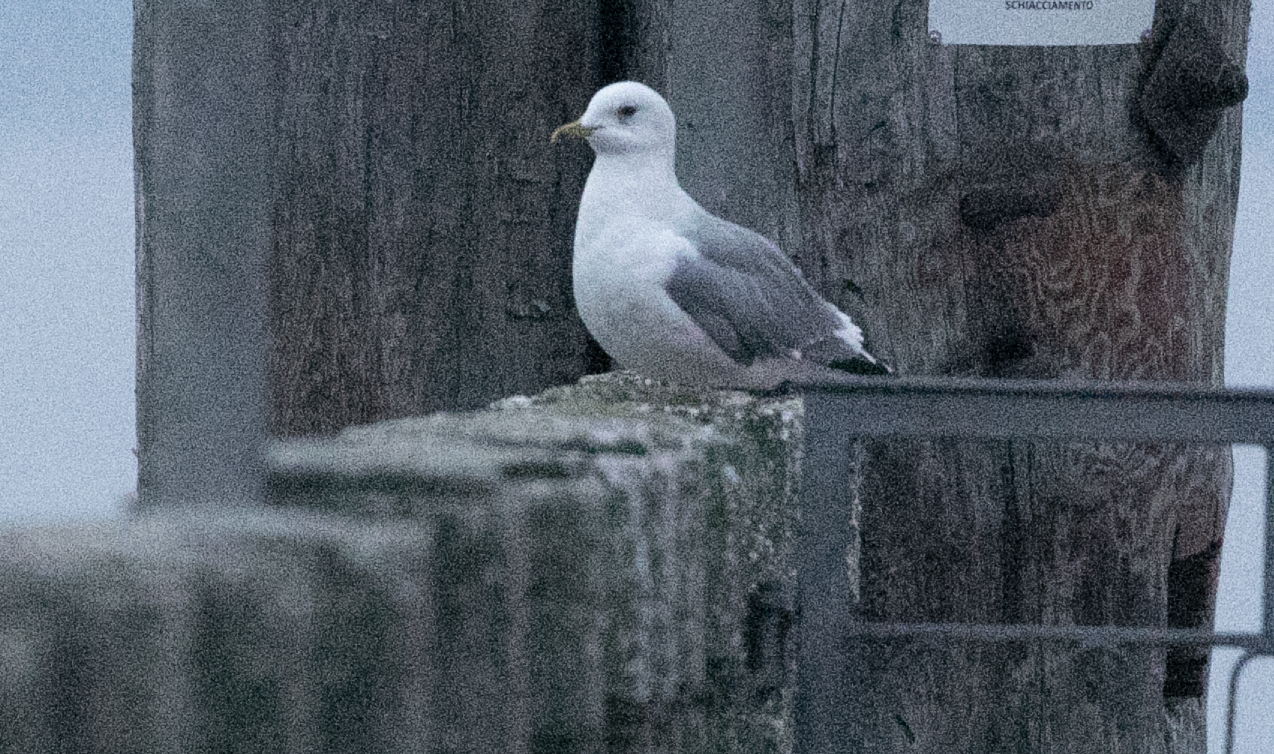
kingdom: Animalia
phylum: Chordata
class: Aves
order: Charadriiformes
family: Laridae
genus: Larus
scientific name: Larus canus
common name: Mew gull
